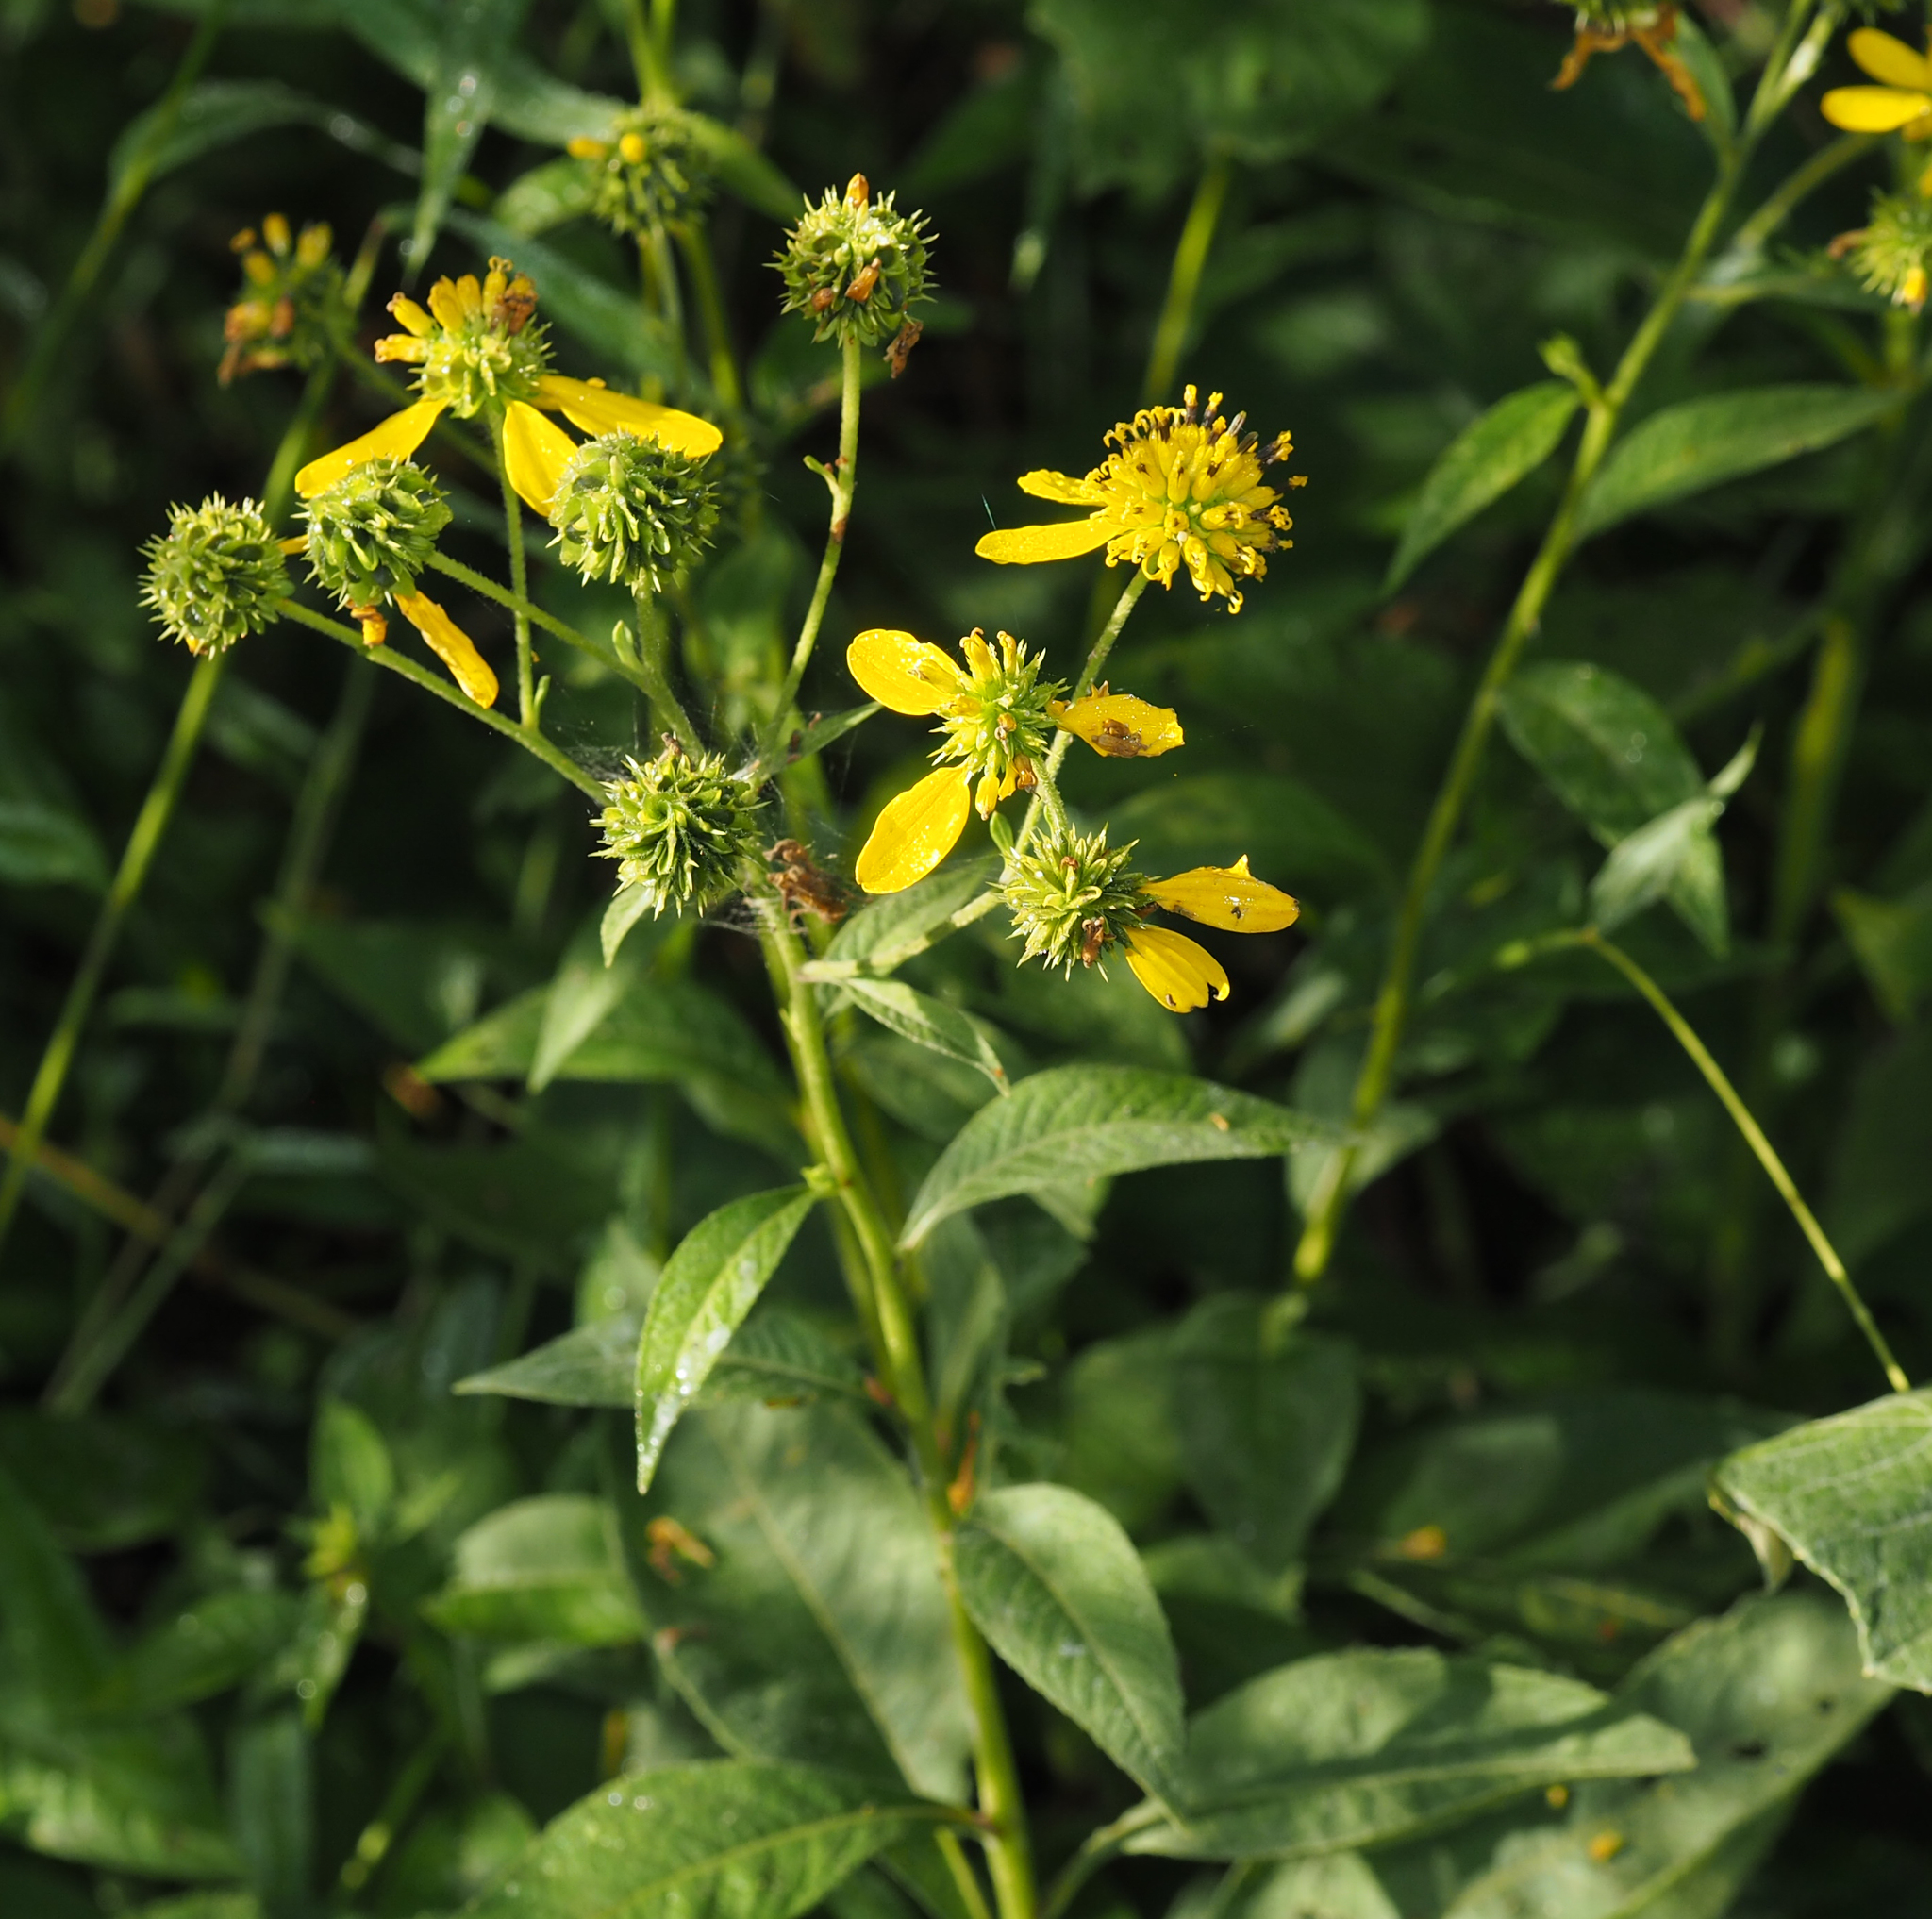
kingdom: Plantae
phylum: Tracheophyta
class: Magnoliopsida
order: Asterales
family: Asteraceae
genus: Verbesina
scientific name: Verbesina alternifolia
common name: Wingstem
